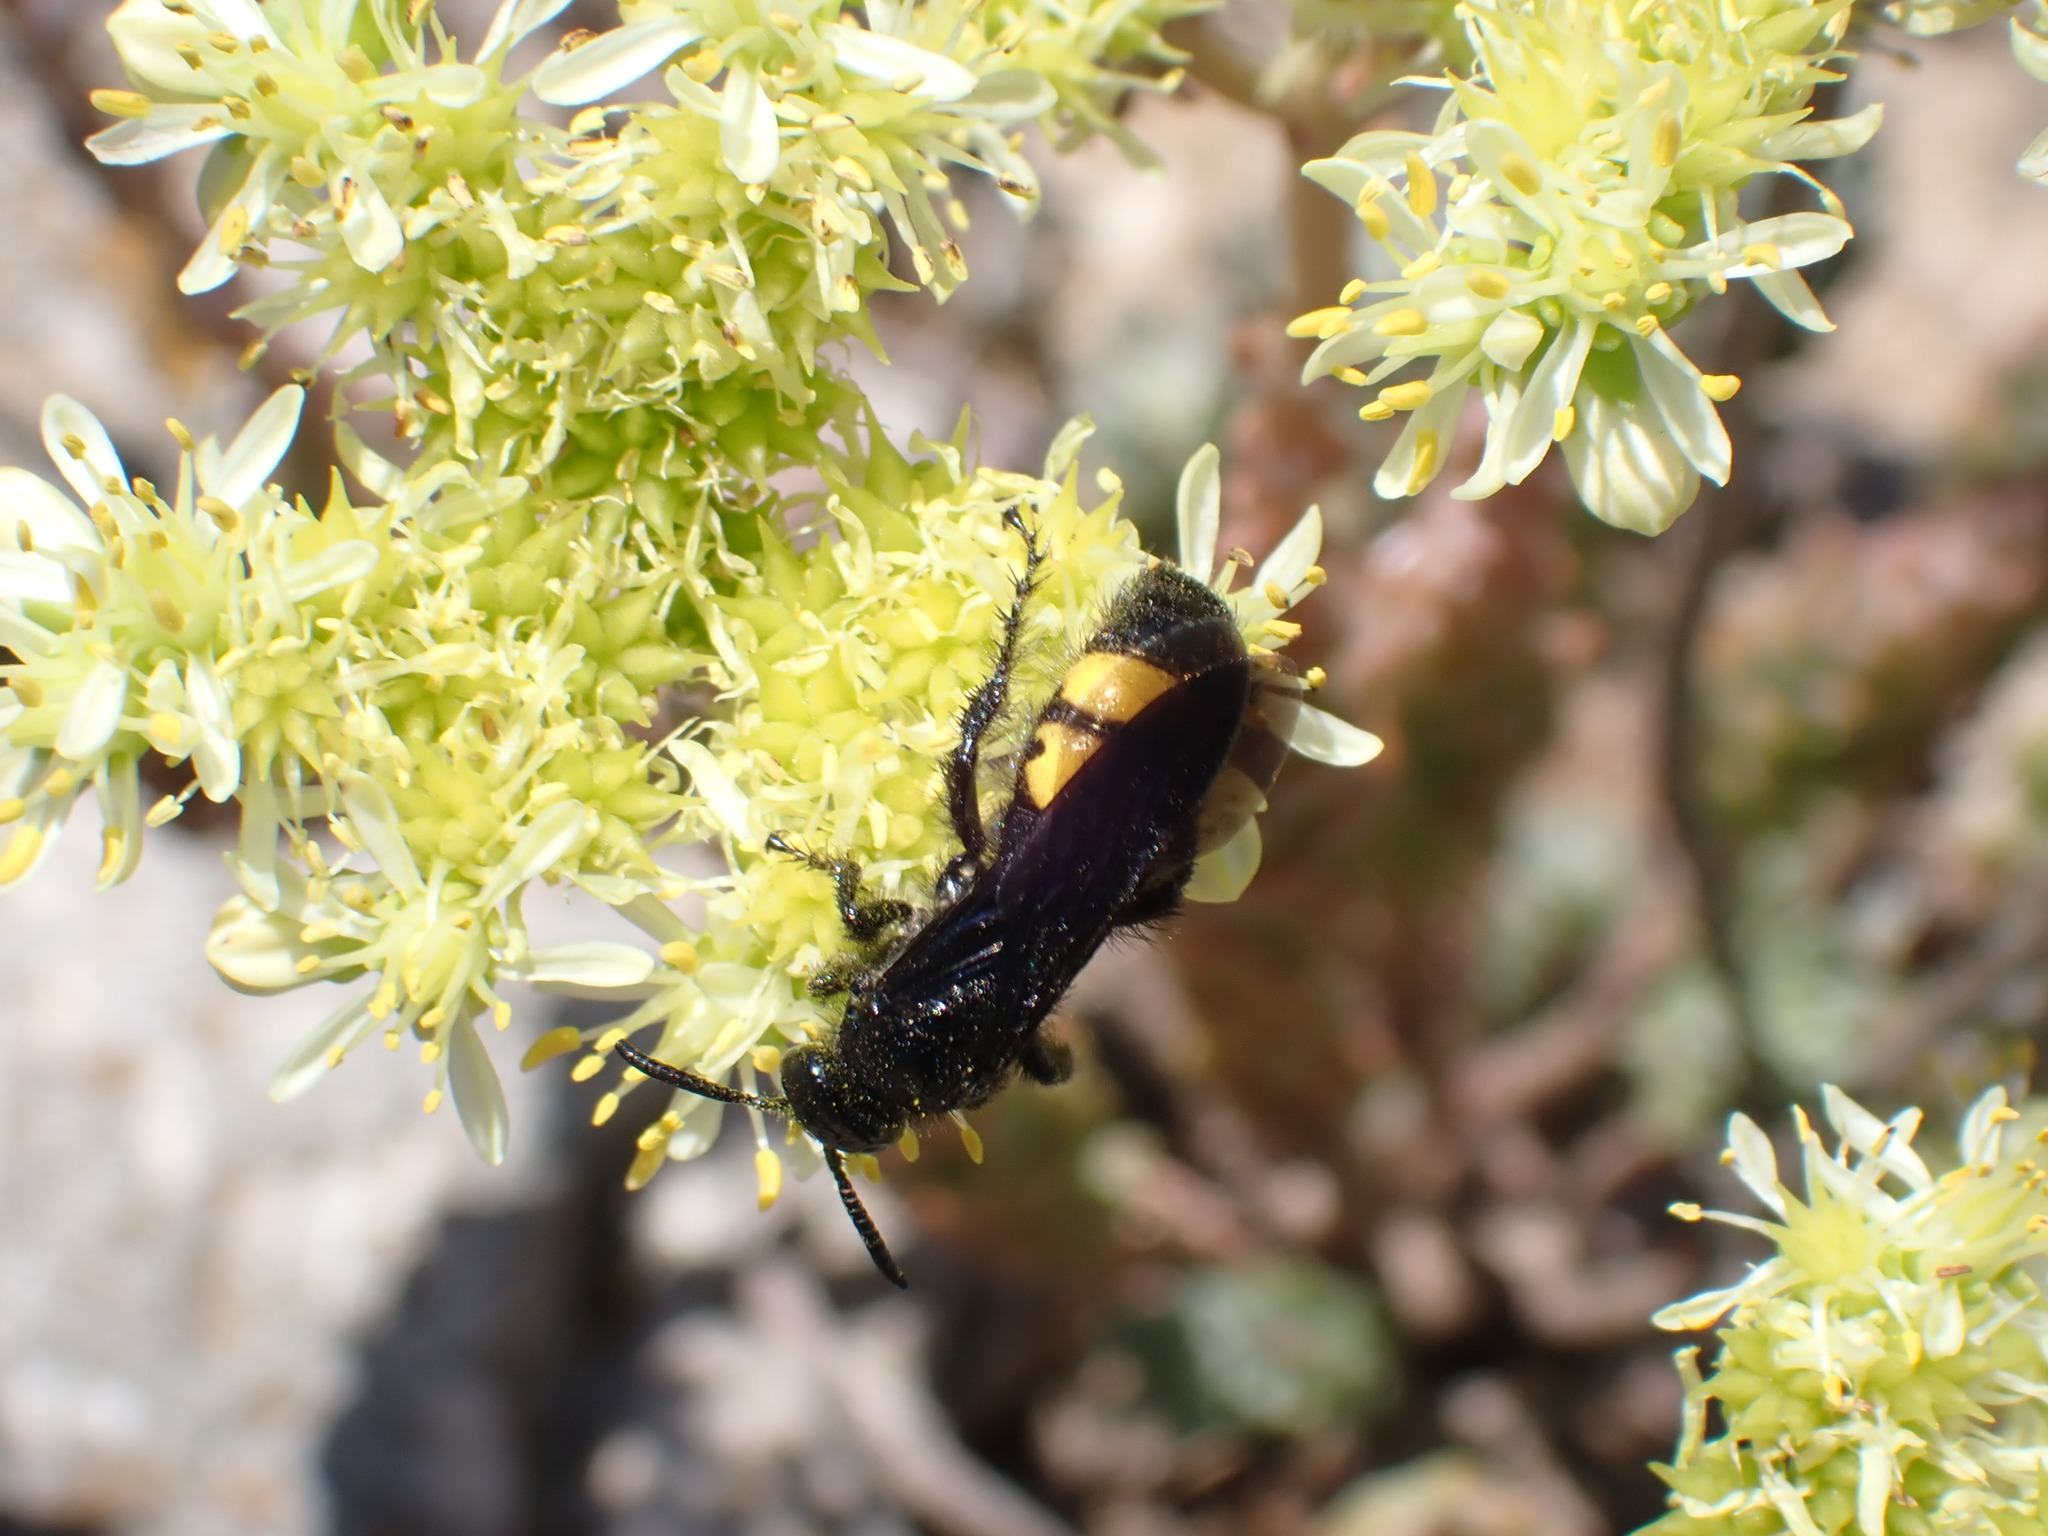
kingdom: Animalia
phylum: Arthropoda
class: Insecta
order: Hymenoptera
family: Scoliidae
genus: Scolia
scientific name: Scolia hirta
